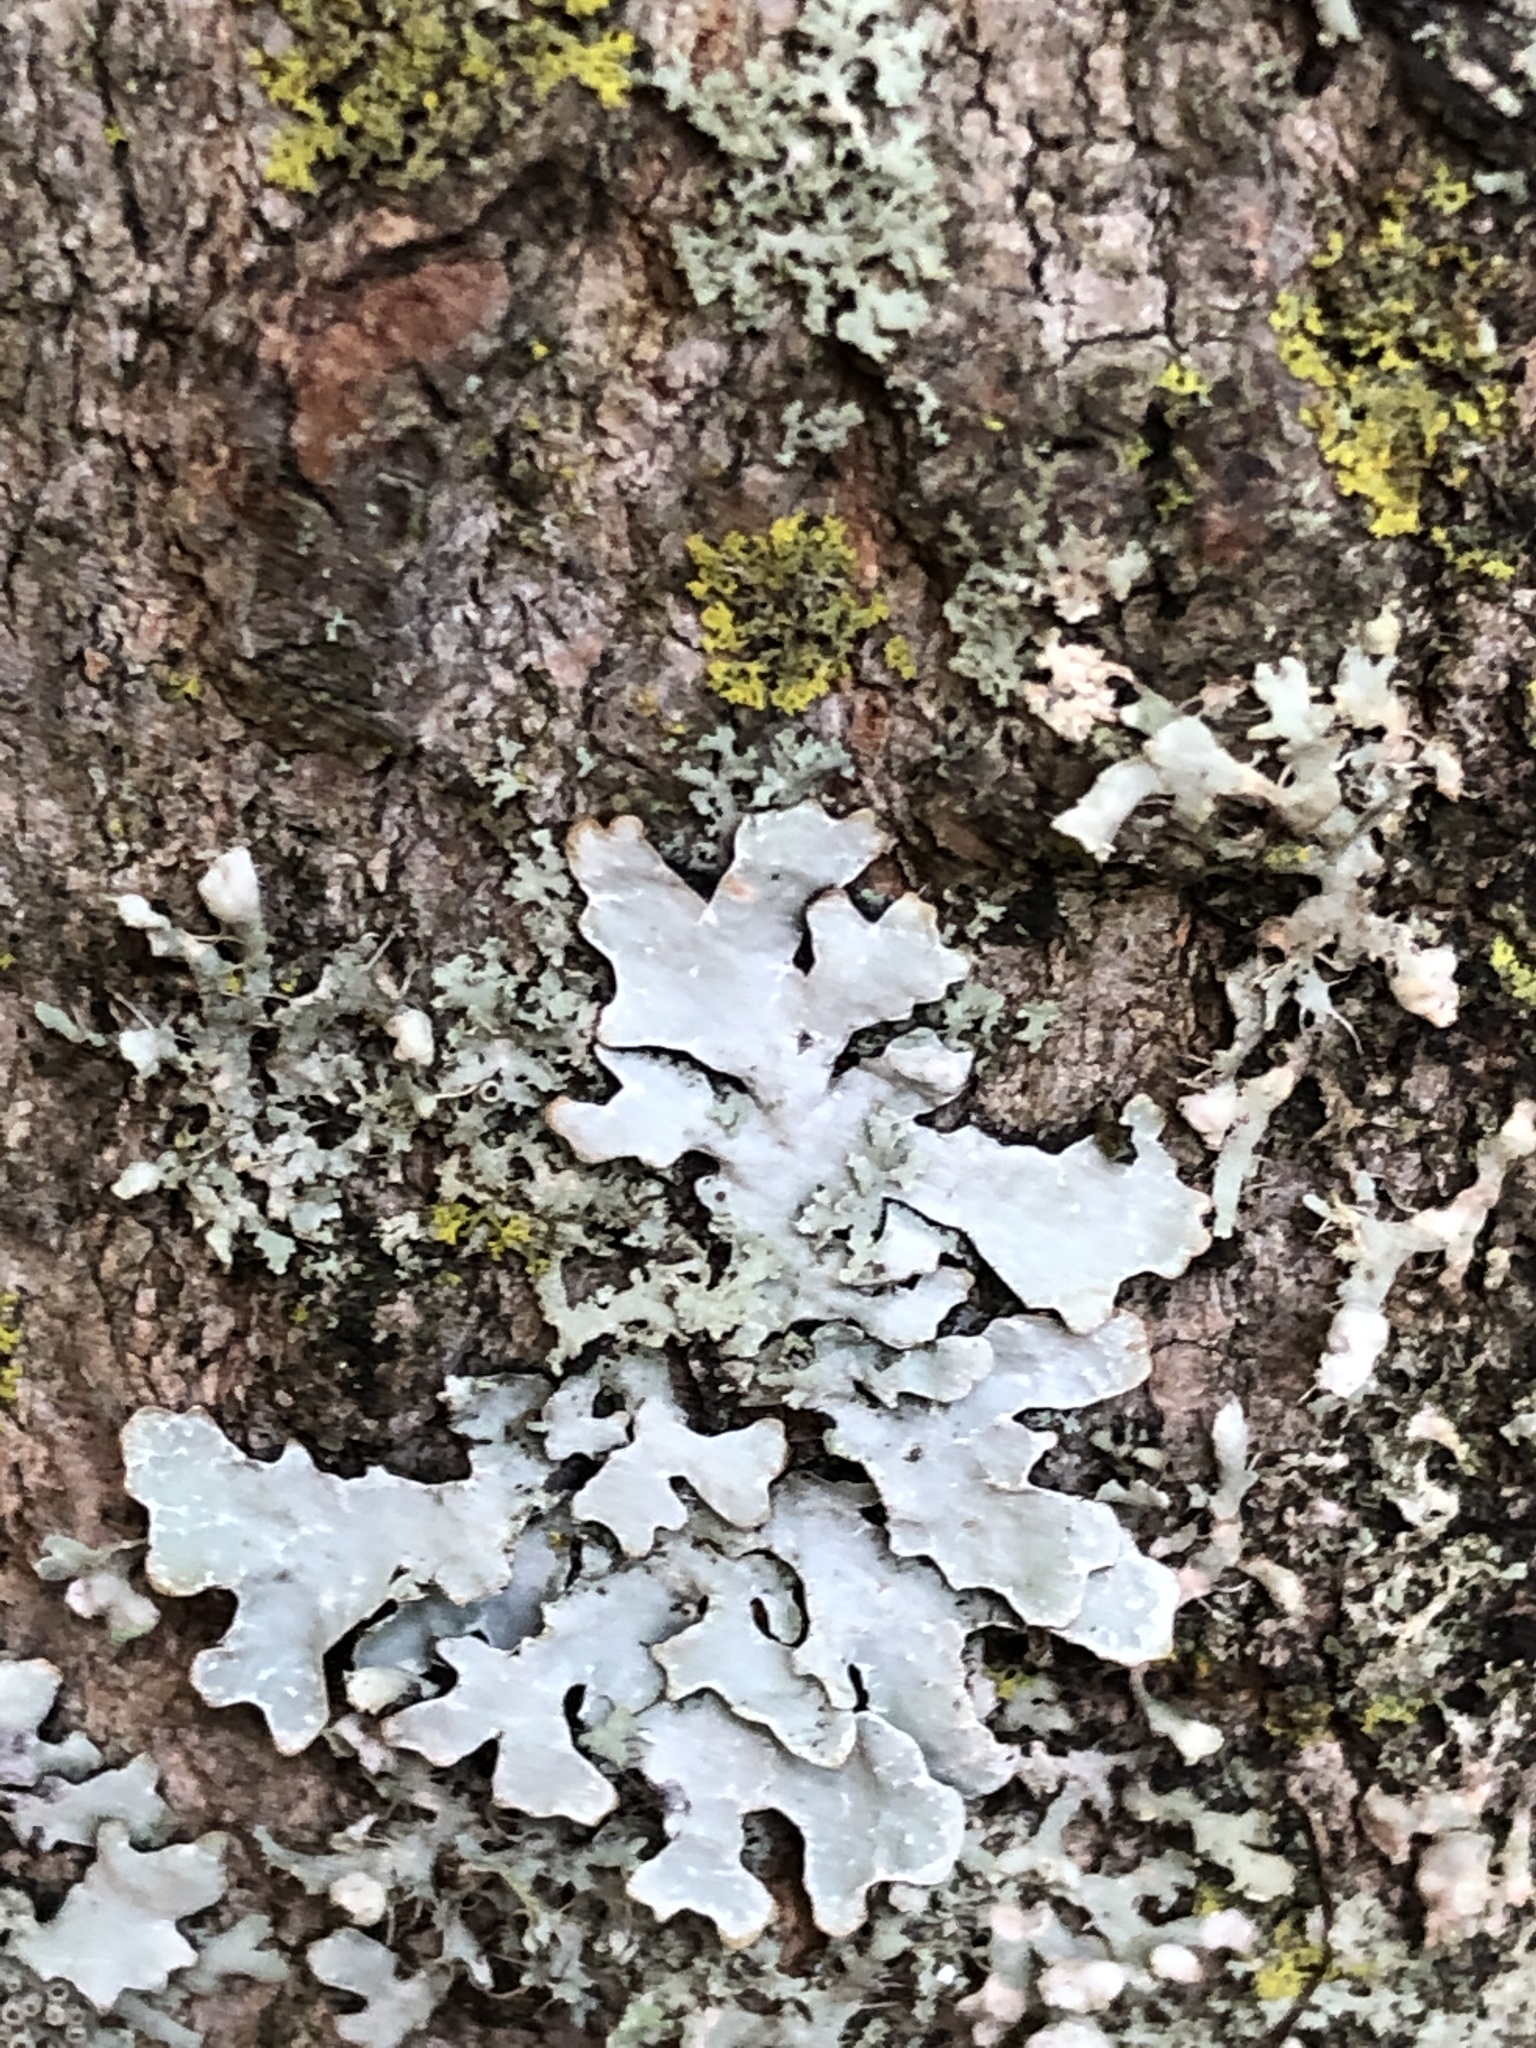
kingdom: Fungi
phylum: Ascomycota
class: Lecanoromycetes
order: Lecanorales
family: Parmeliaceae
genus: Parmelia
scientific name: Parmelia sulcata
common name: Netted shield lichen
